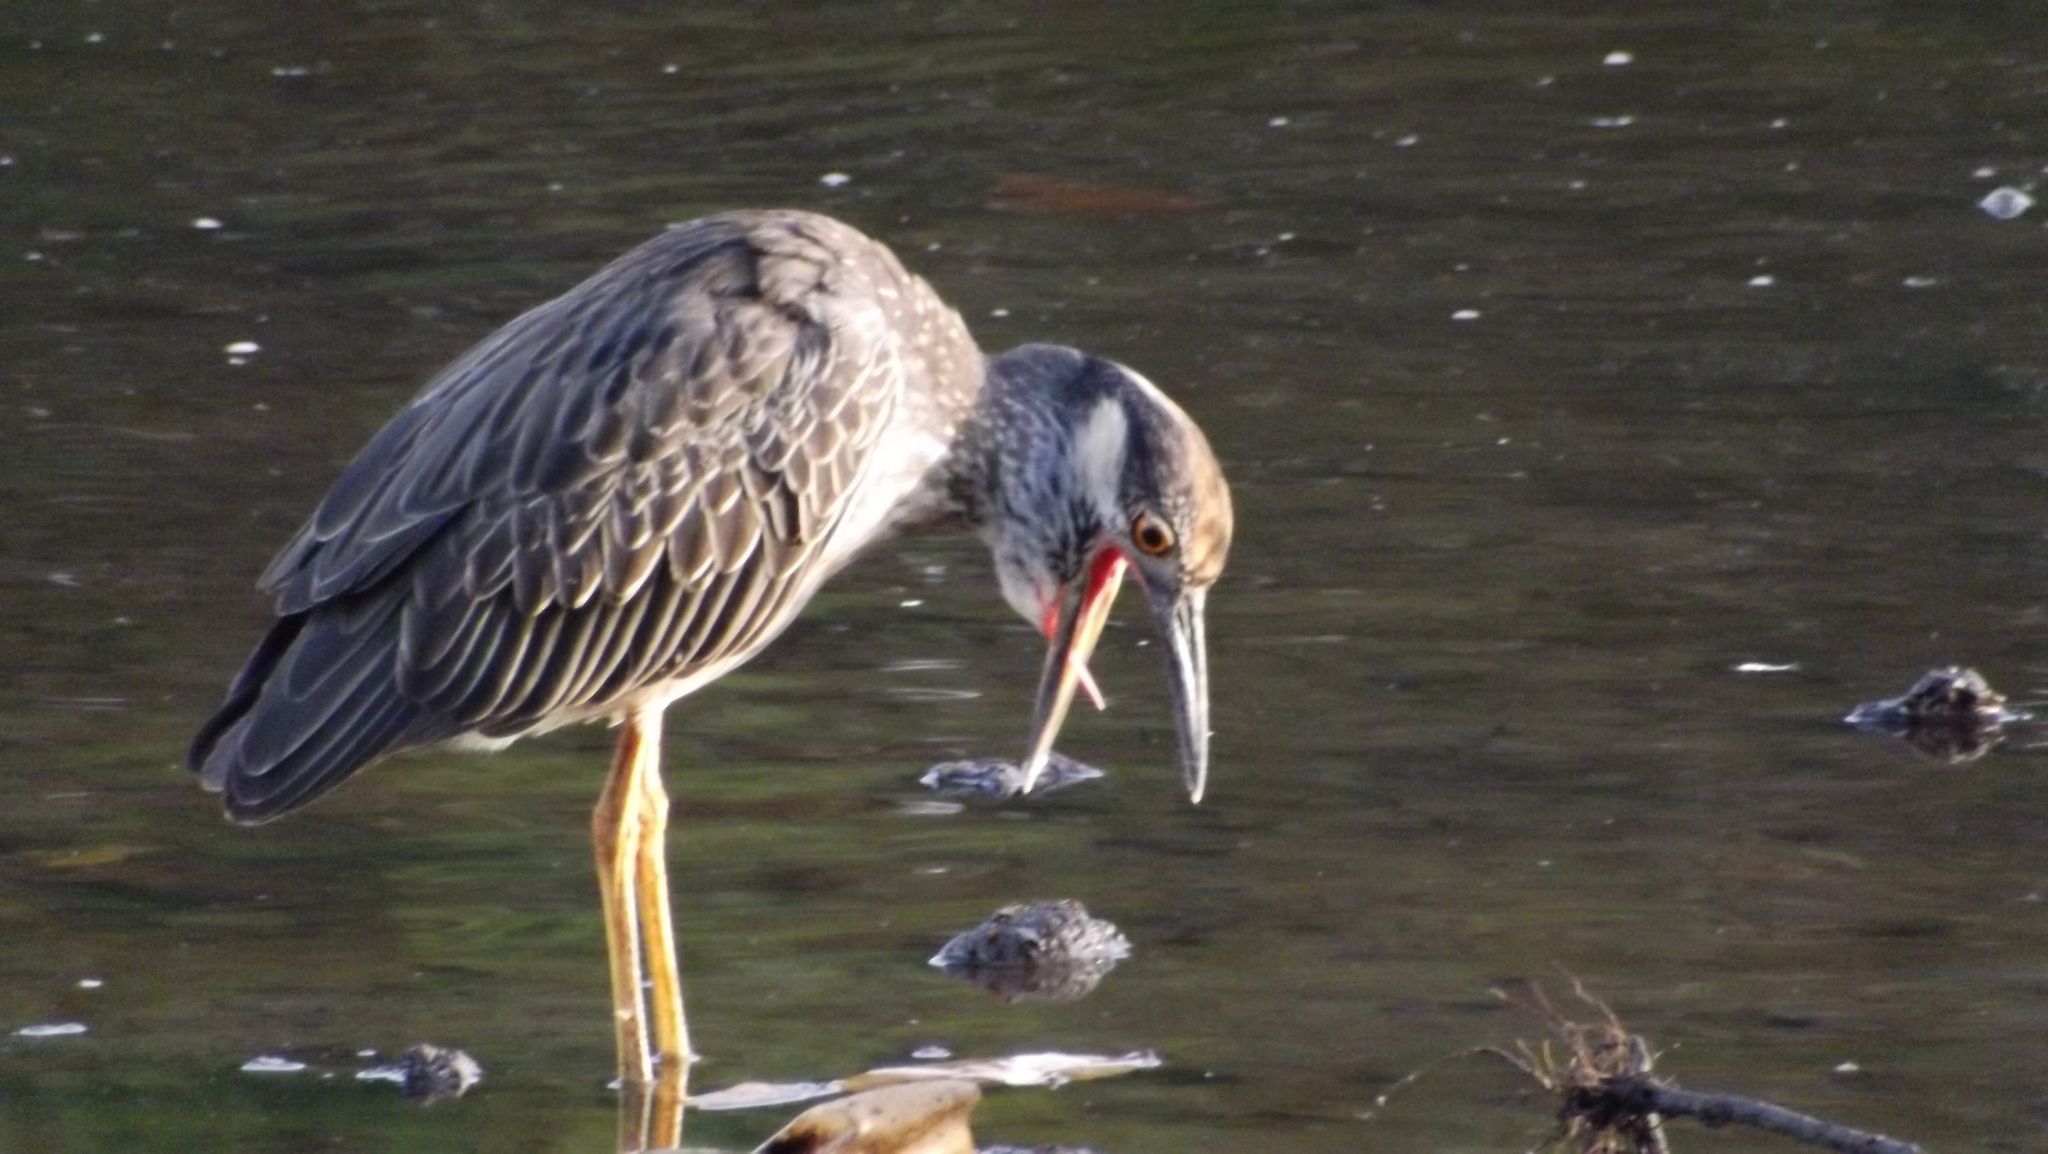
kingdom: Animalia
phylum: Chordata
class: Aves
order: Pelecaniformes
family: Ardeidae
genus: Nyctanassa
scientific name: Nyctanassa violacea
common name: Yellow-crowned night heron
